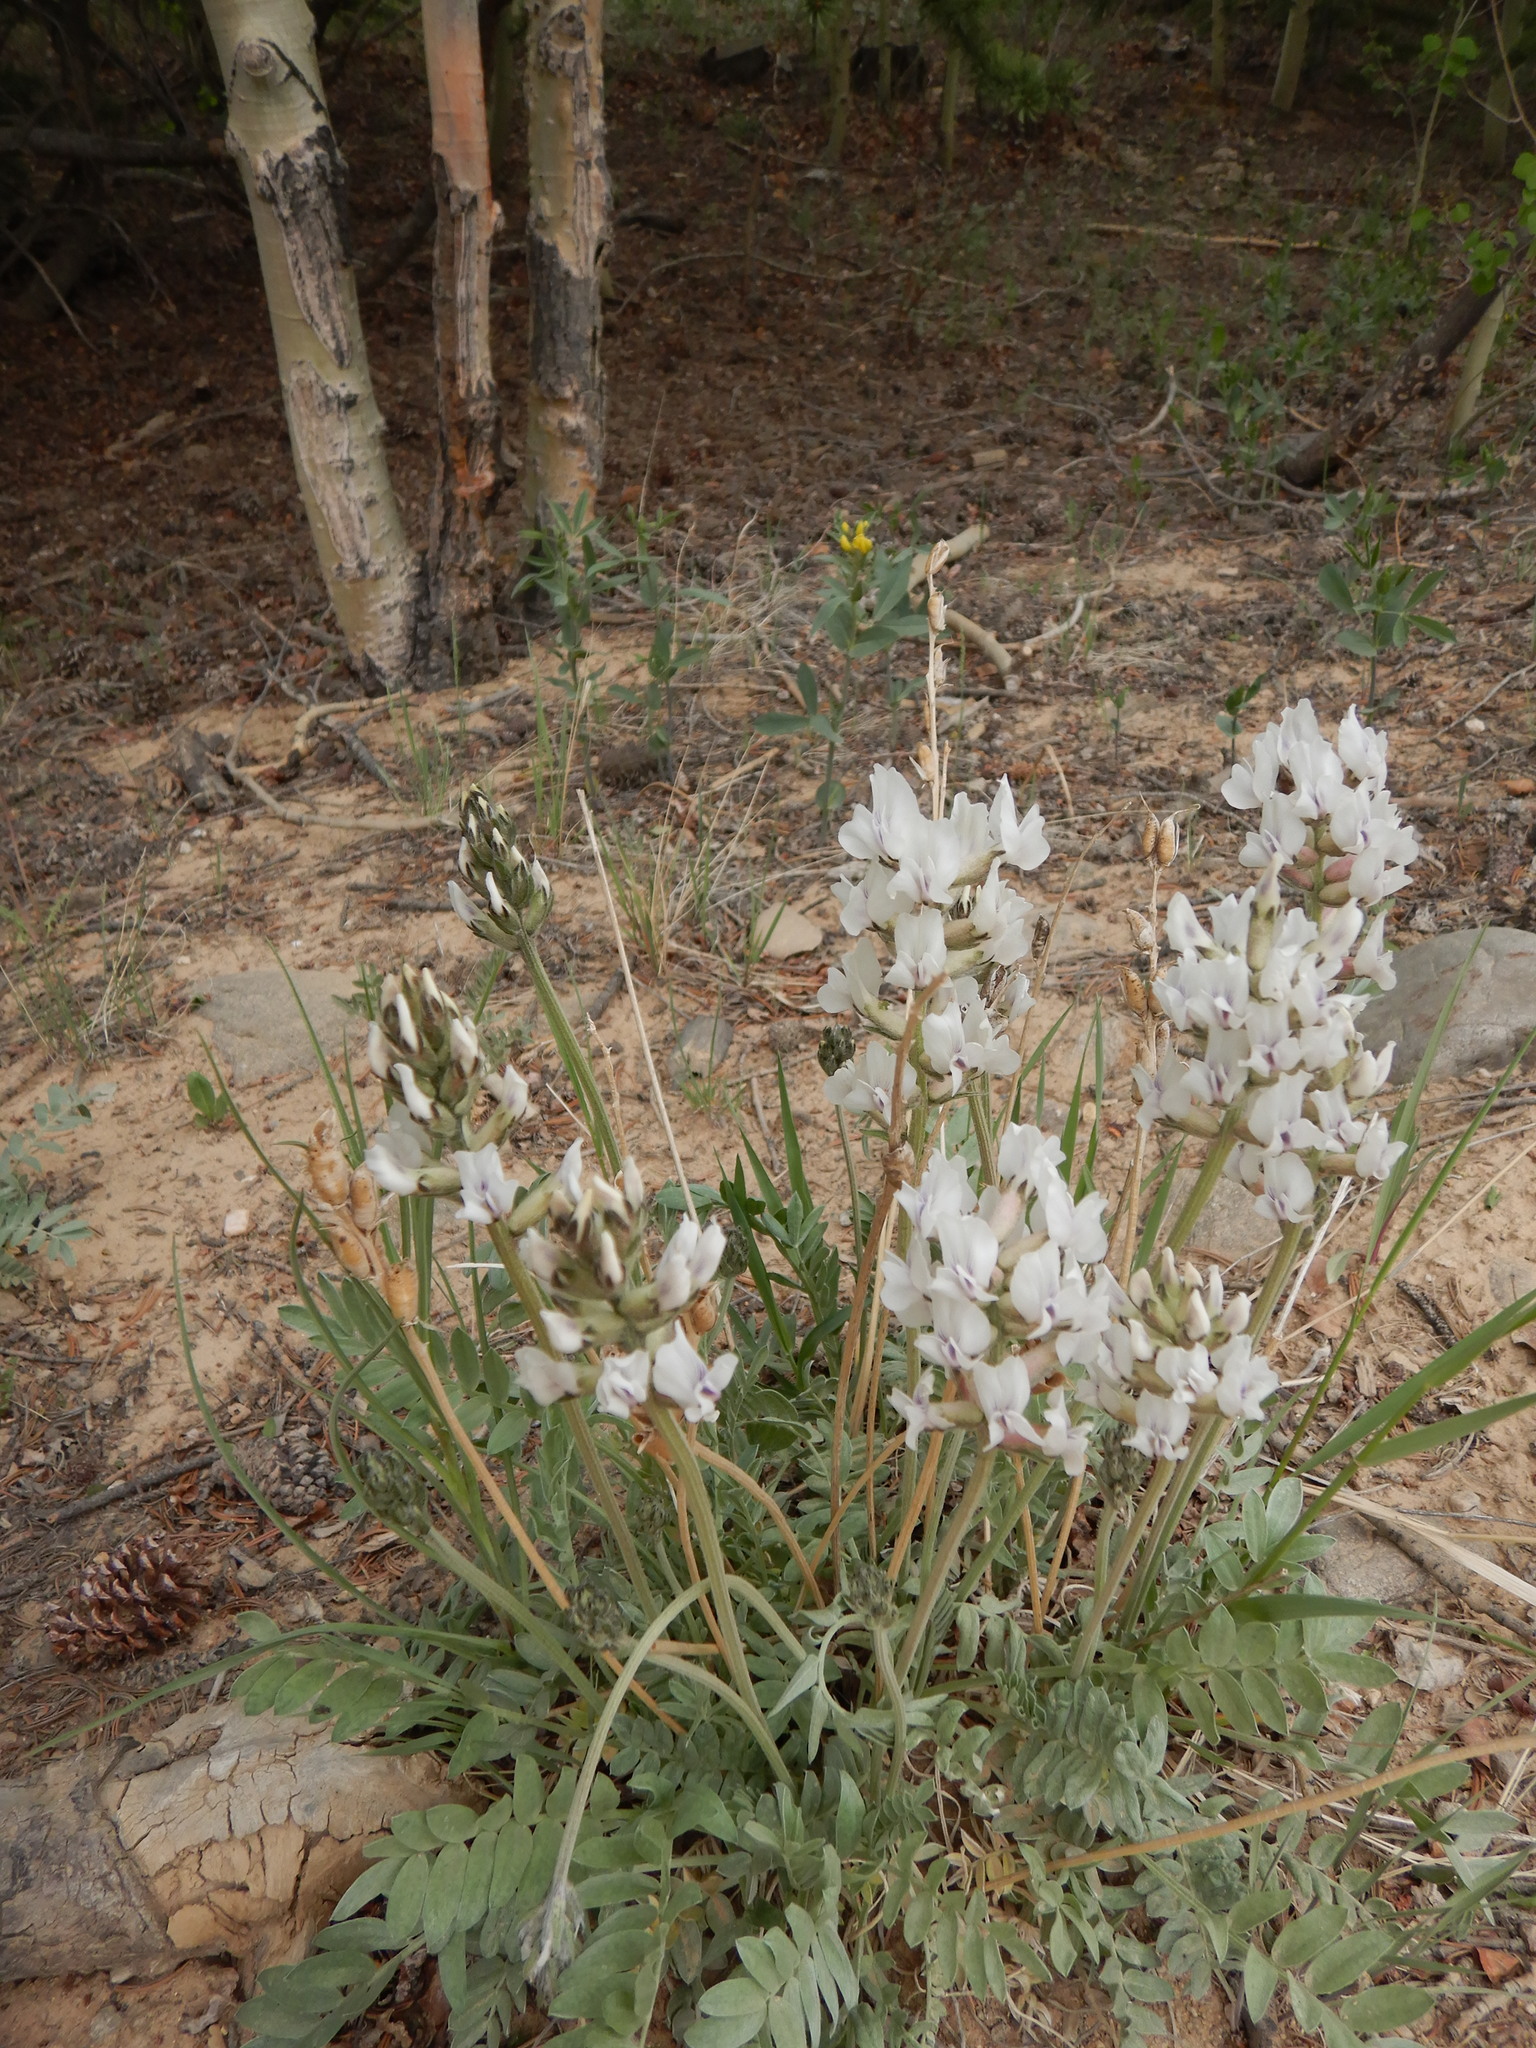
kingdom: Plantae
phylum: Tracheophyta
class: Magnoliopsida
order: Fabales
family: Fabaceae
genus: Oxytropis
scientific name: Oxytropis sericea
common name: Silky locoweed
